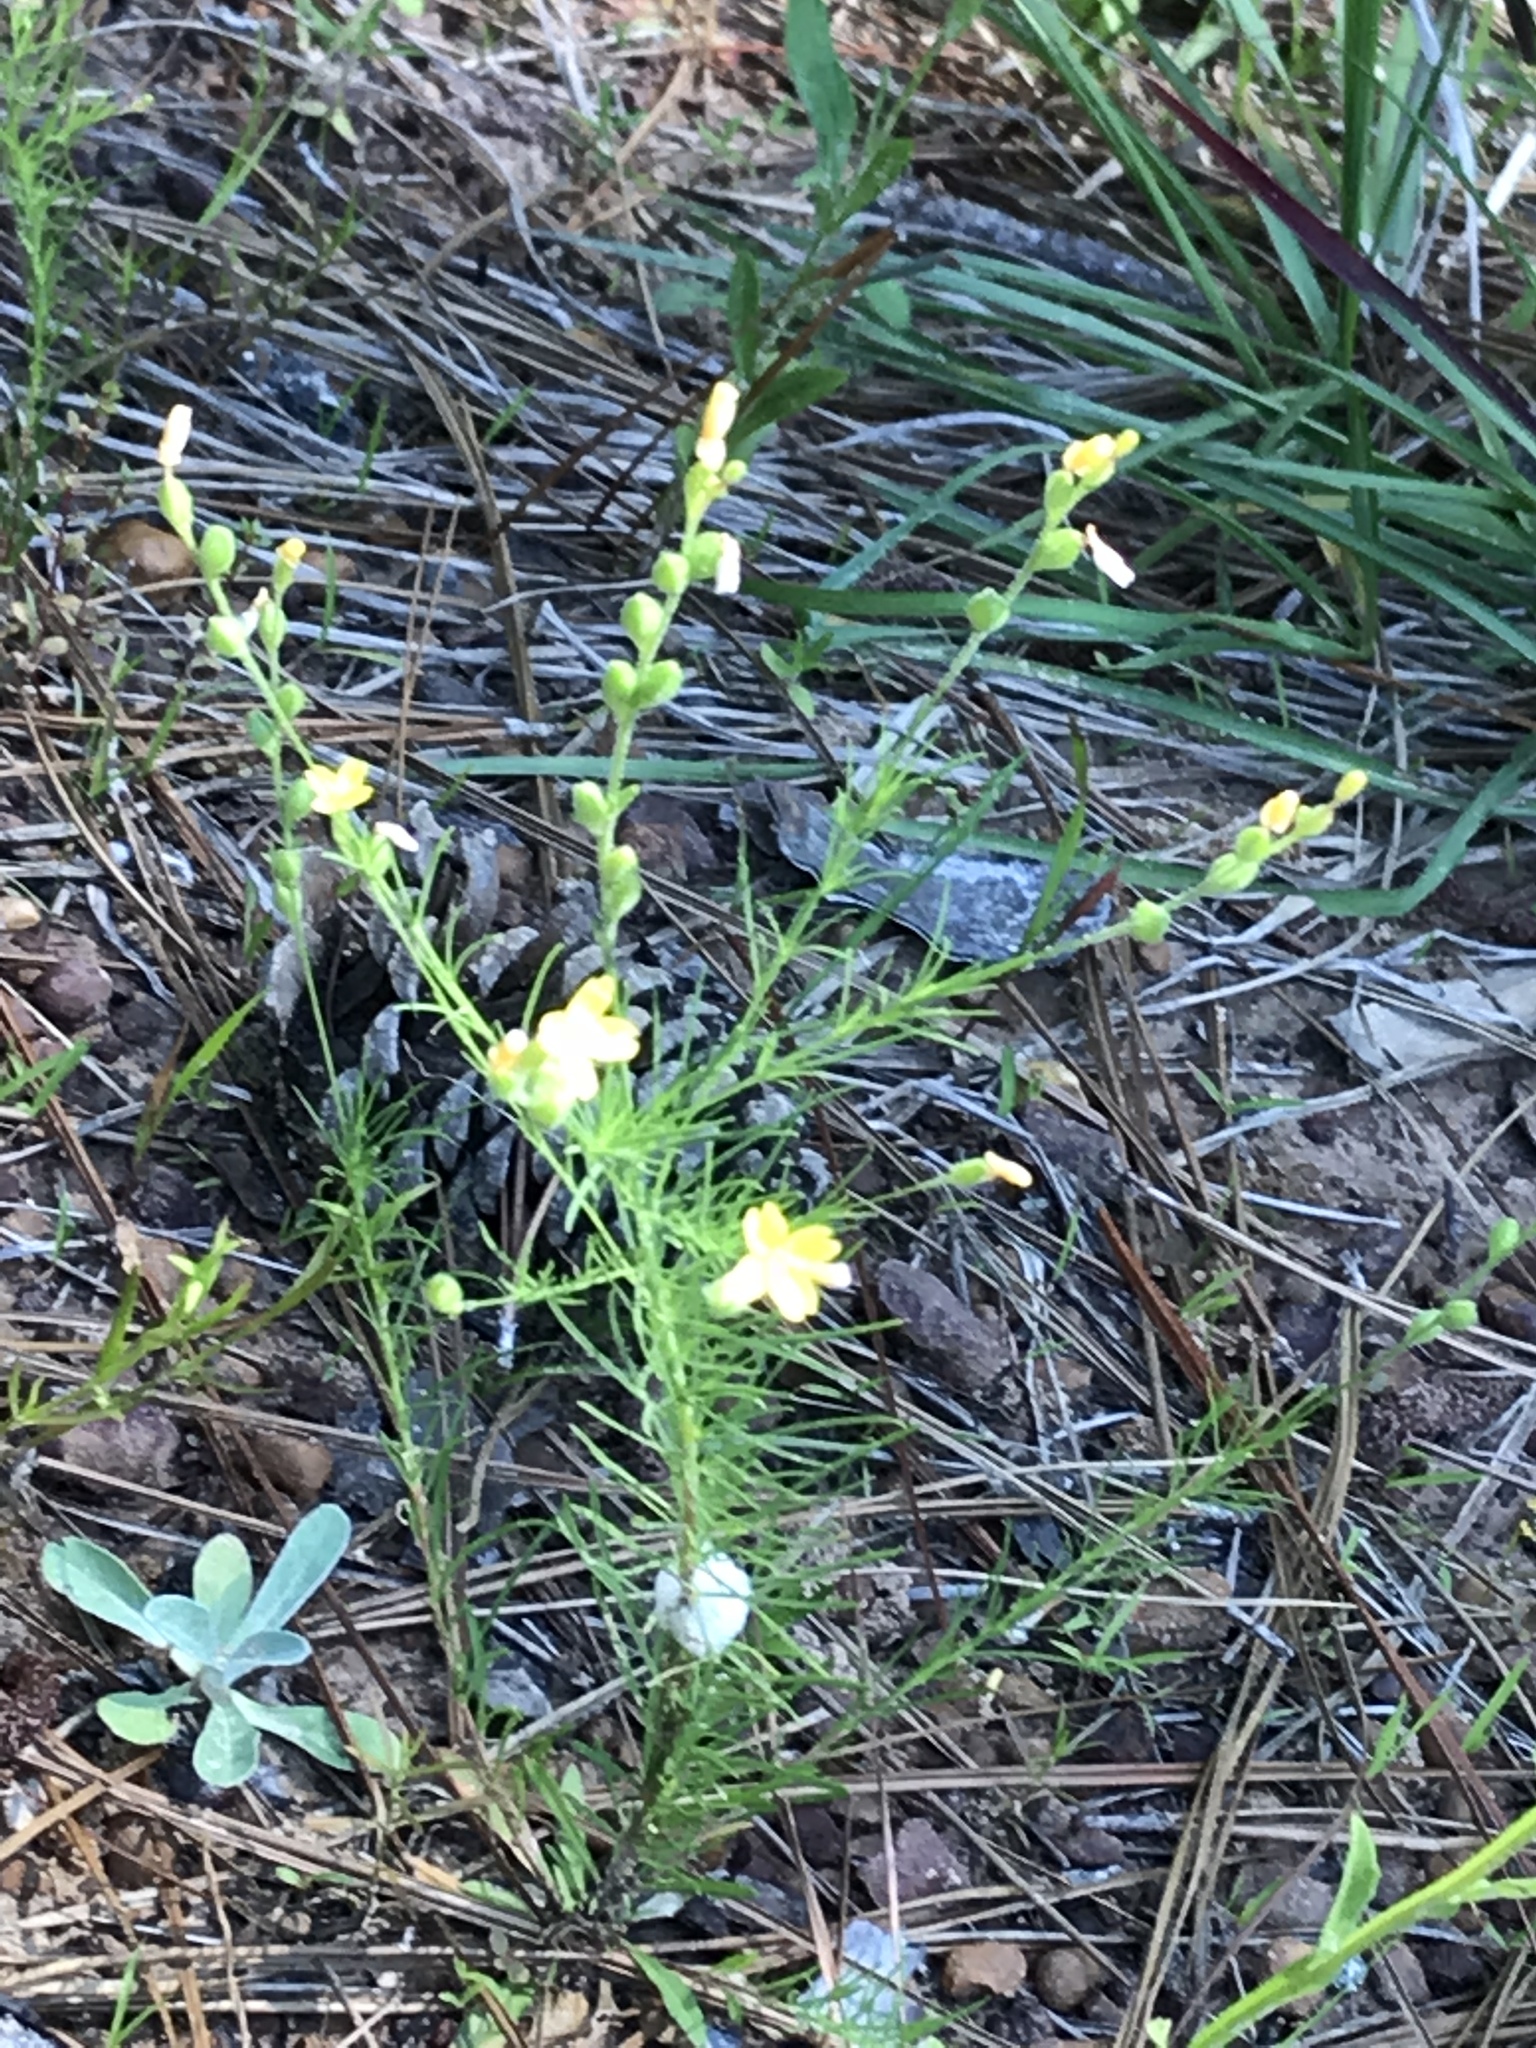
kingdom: Plantae
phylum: Tracheophyta
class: Magnoliopsida
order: Myrtales
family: Onagraceae
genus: Oenothera
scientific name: Oenothera linifolia
